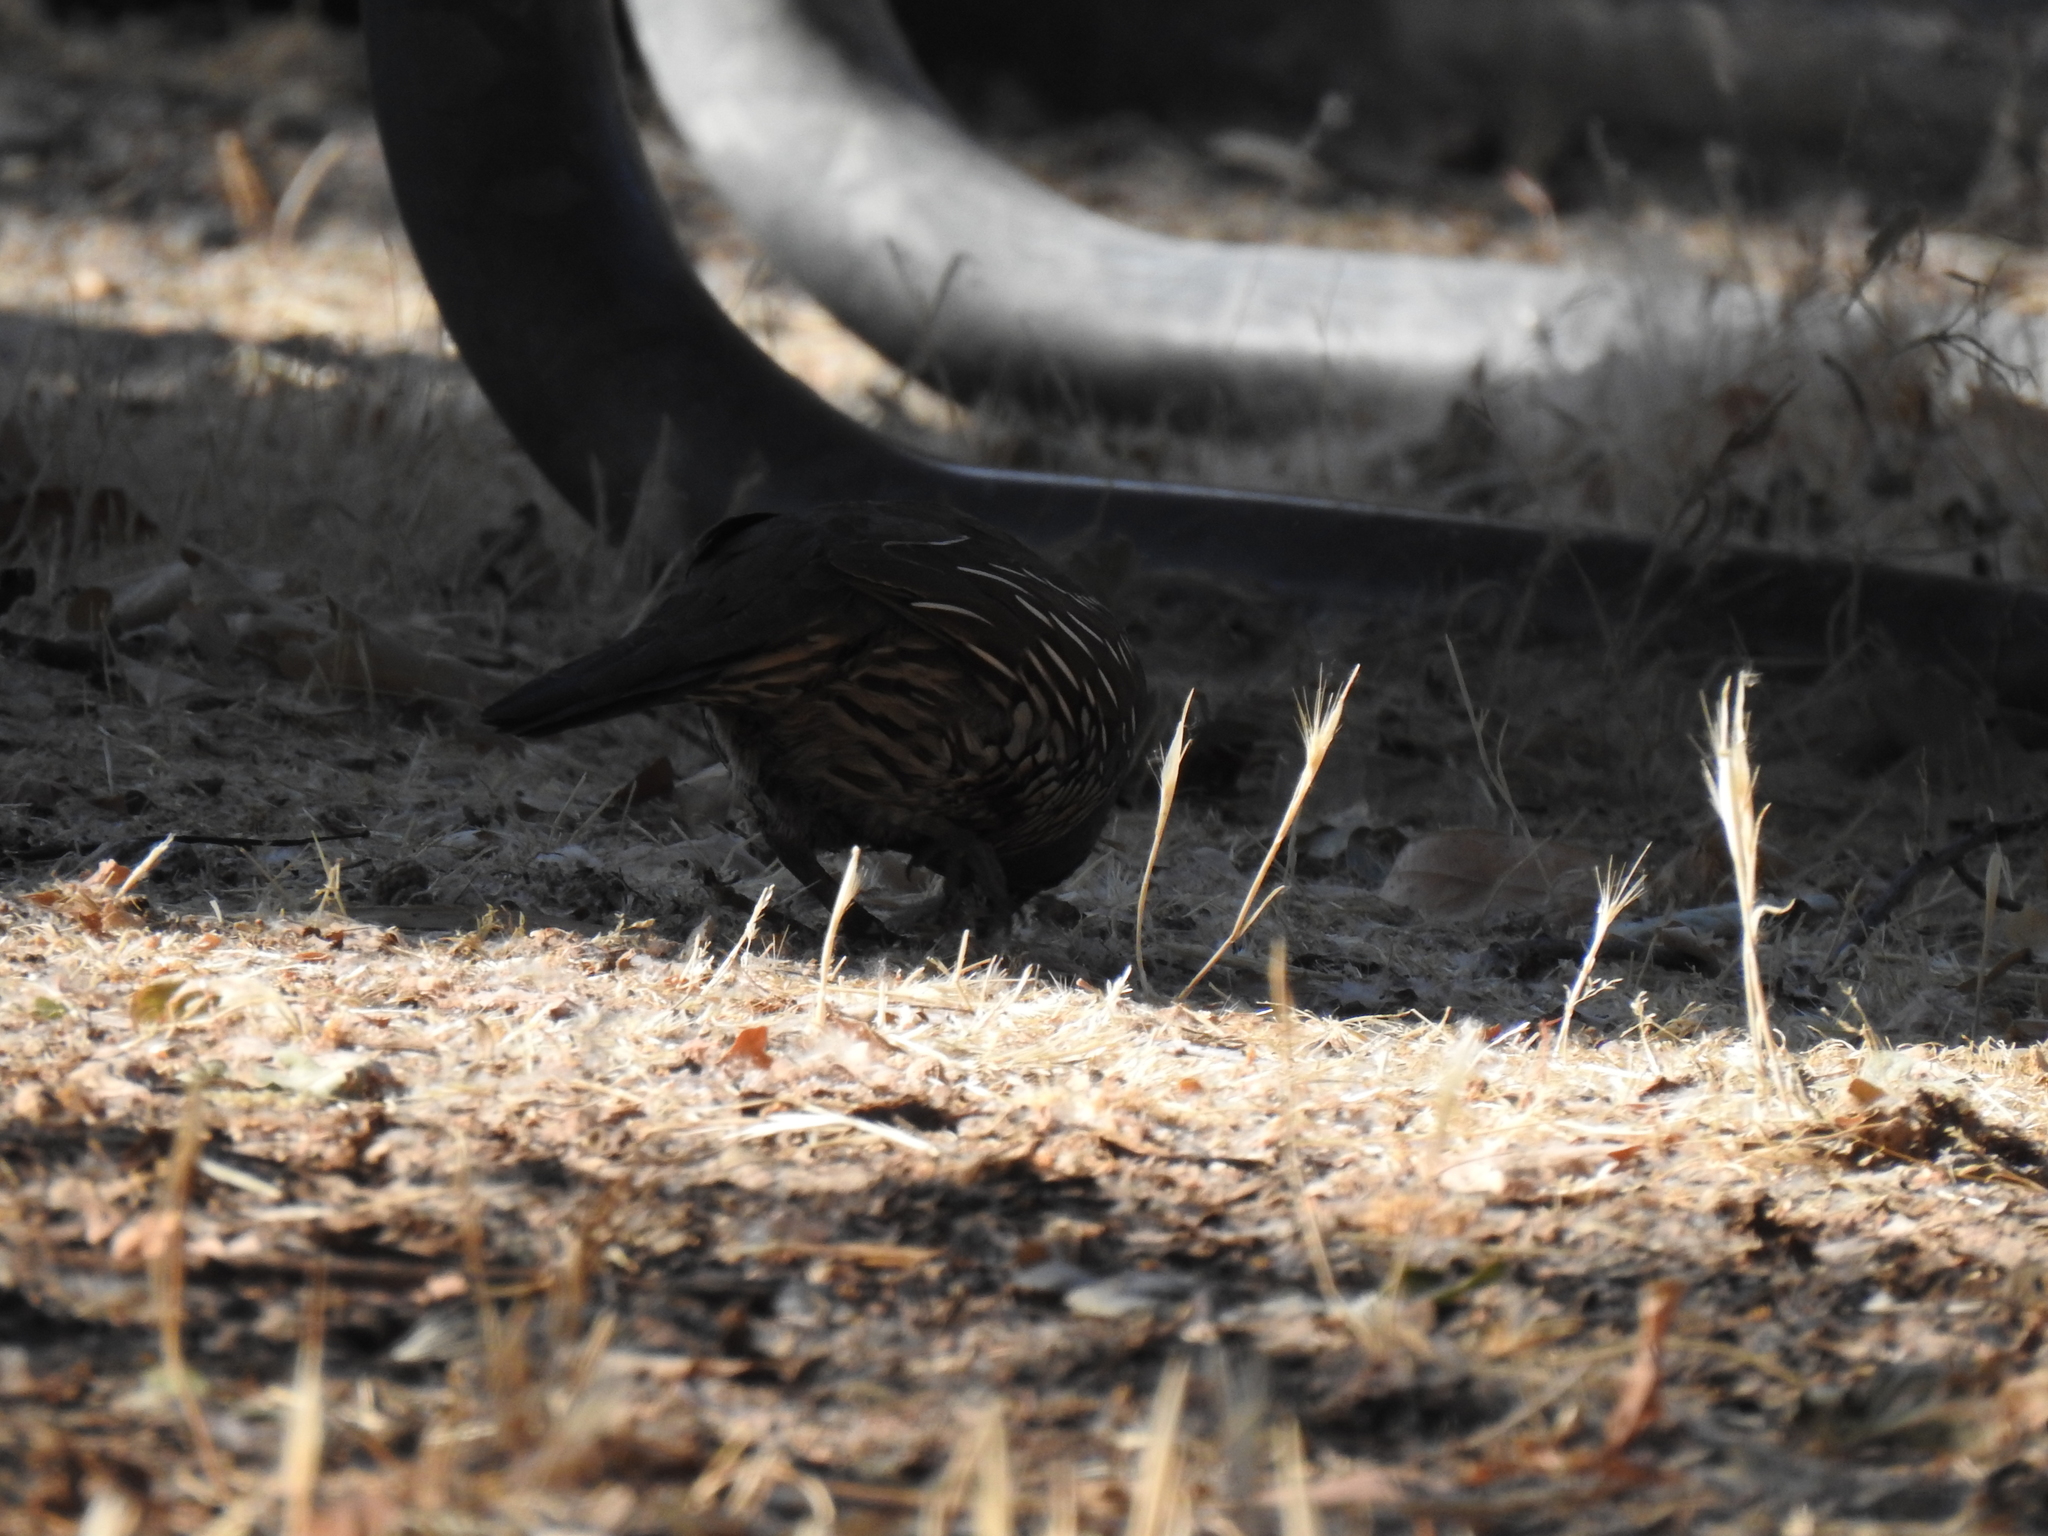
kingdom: Animalia
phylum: Chordata
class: Aves
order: Galliformes
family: Odontophoridae
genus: Callipepla
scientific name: Callipepla californica
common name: California quail
